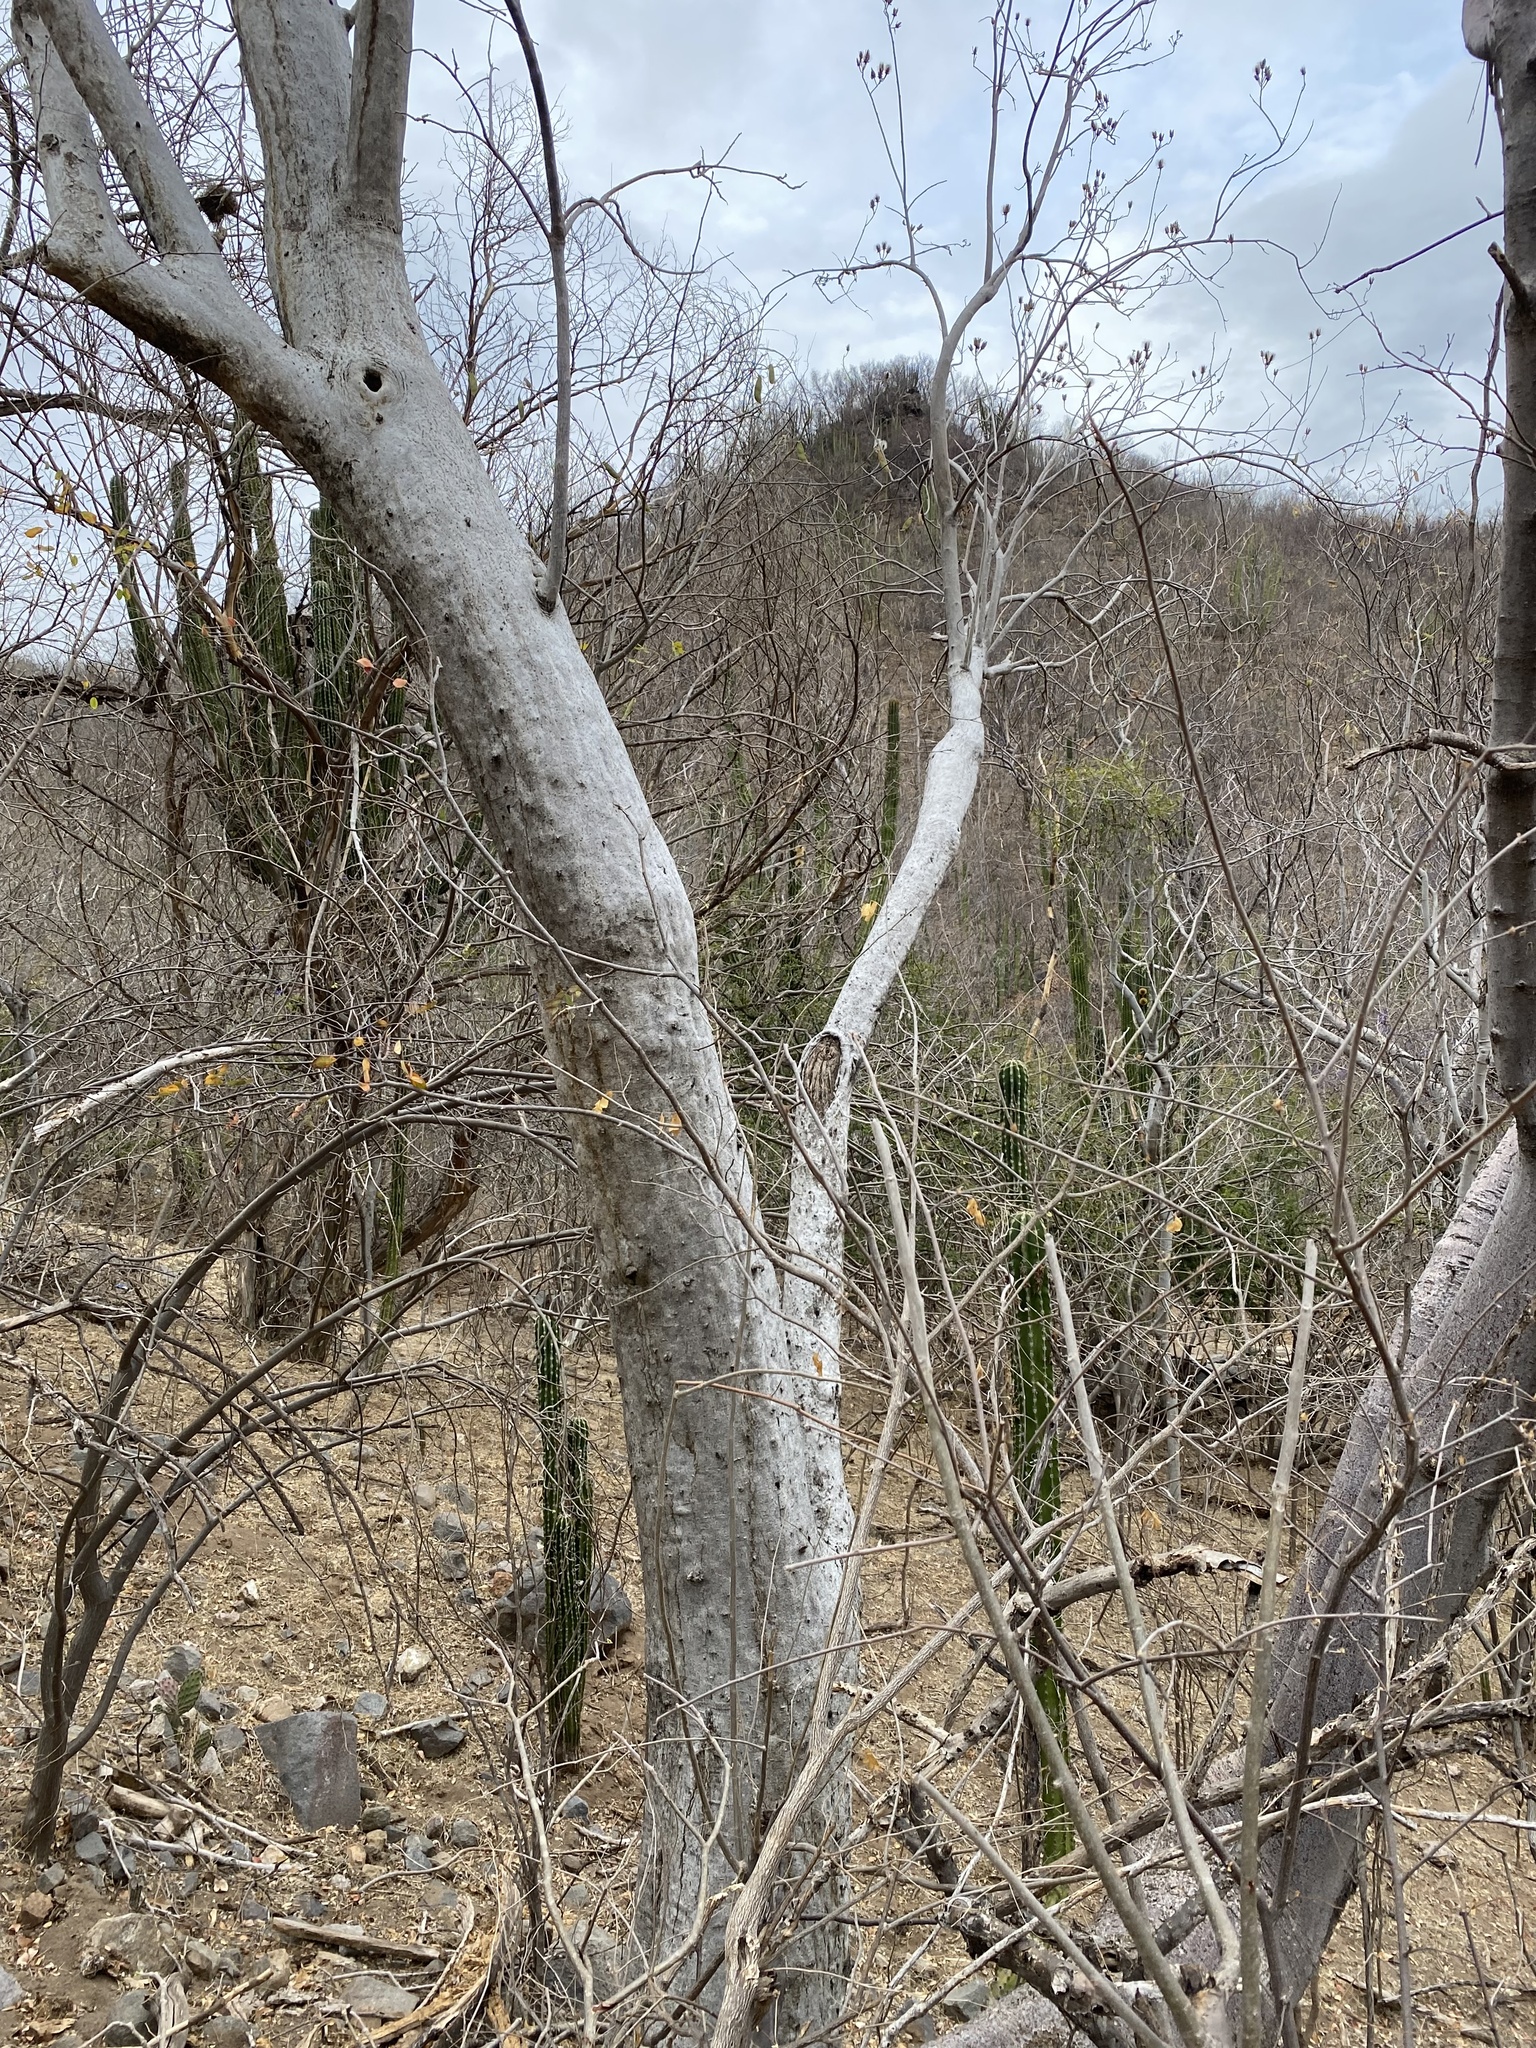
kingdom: Plantae
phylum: Tracheophyta
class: Magnoliopsida
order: Solanales
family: Convolvulaceae
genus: Ipomoea
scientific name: Ipomoea arborescens
